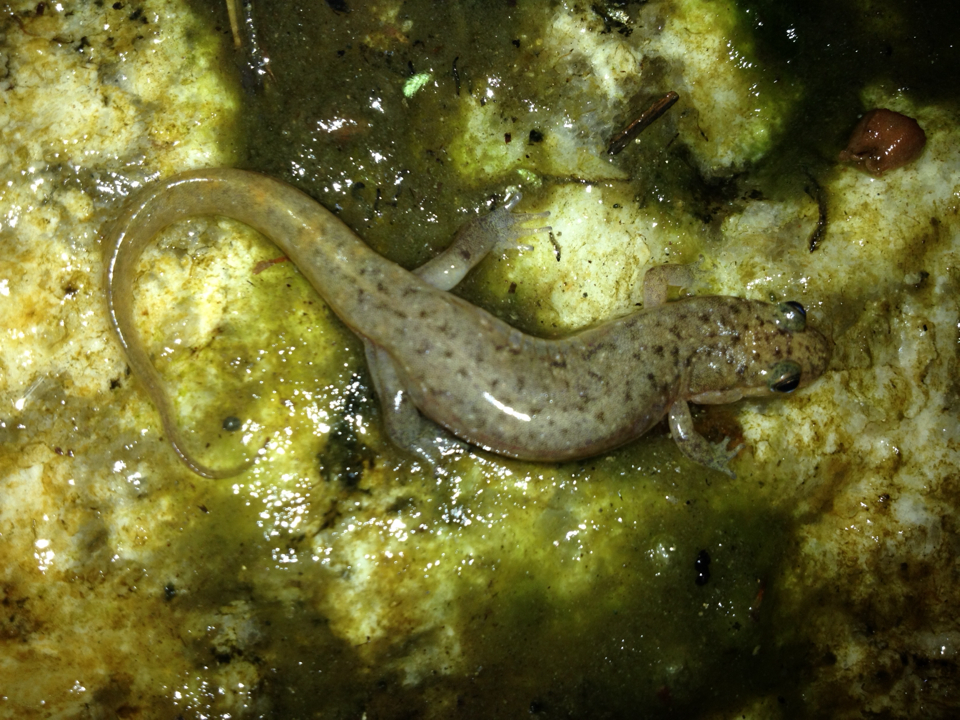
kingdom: Animalia
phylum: Chordata
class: Amphibia
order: Caudata
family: Plethodontidae
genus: Desmognathus
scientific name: Desmognathus monticola
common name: Seal salamander
